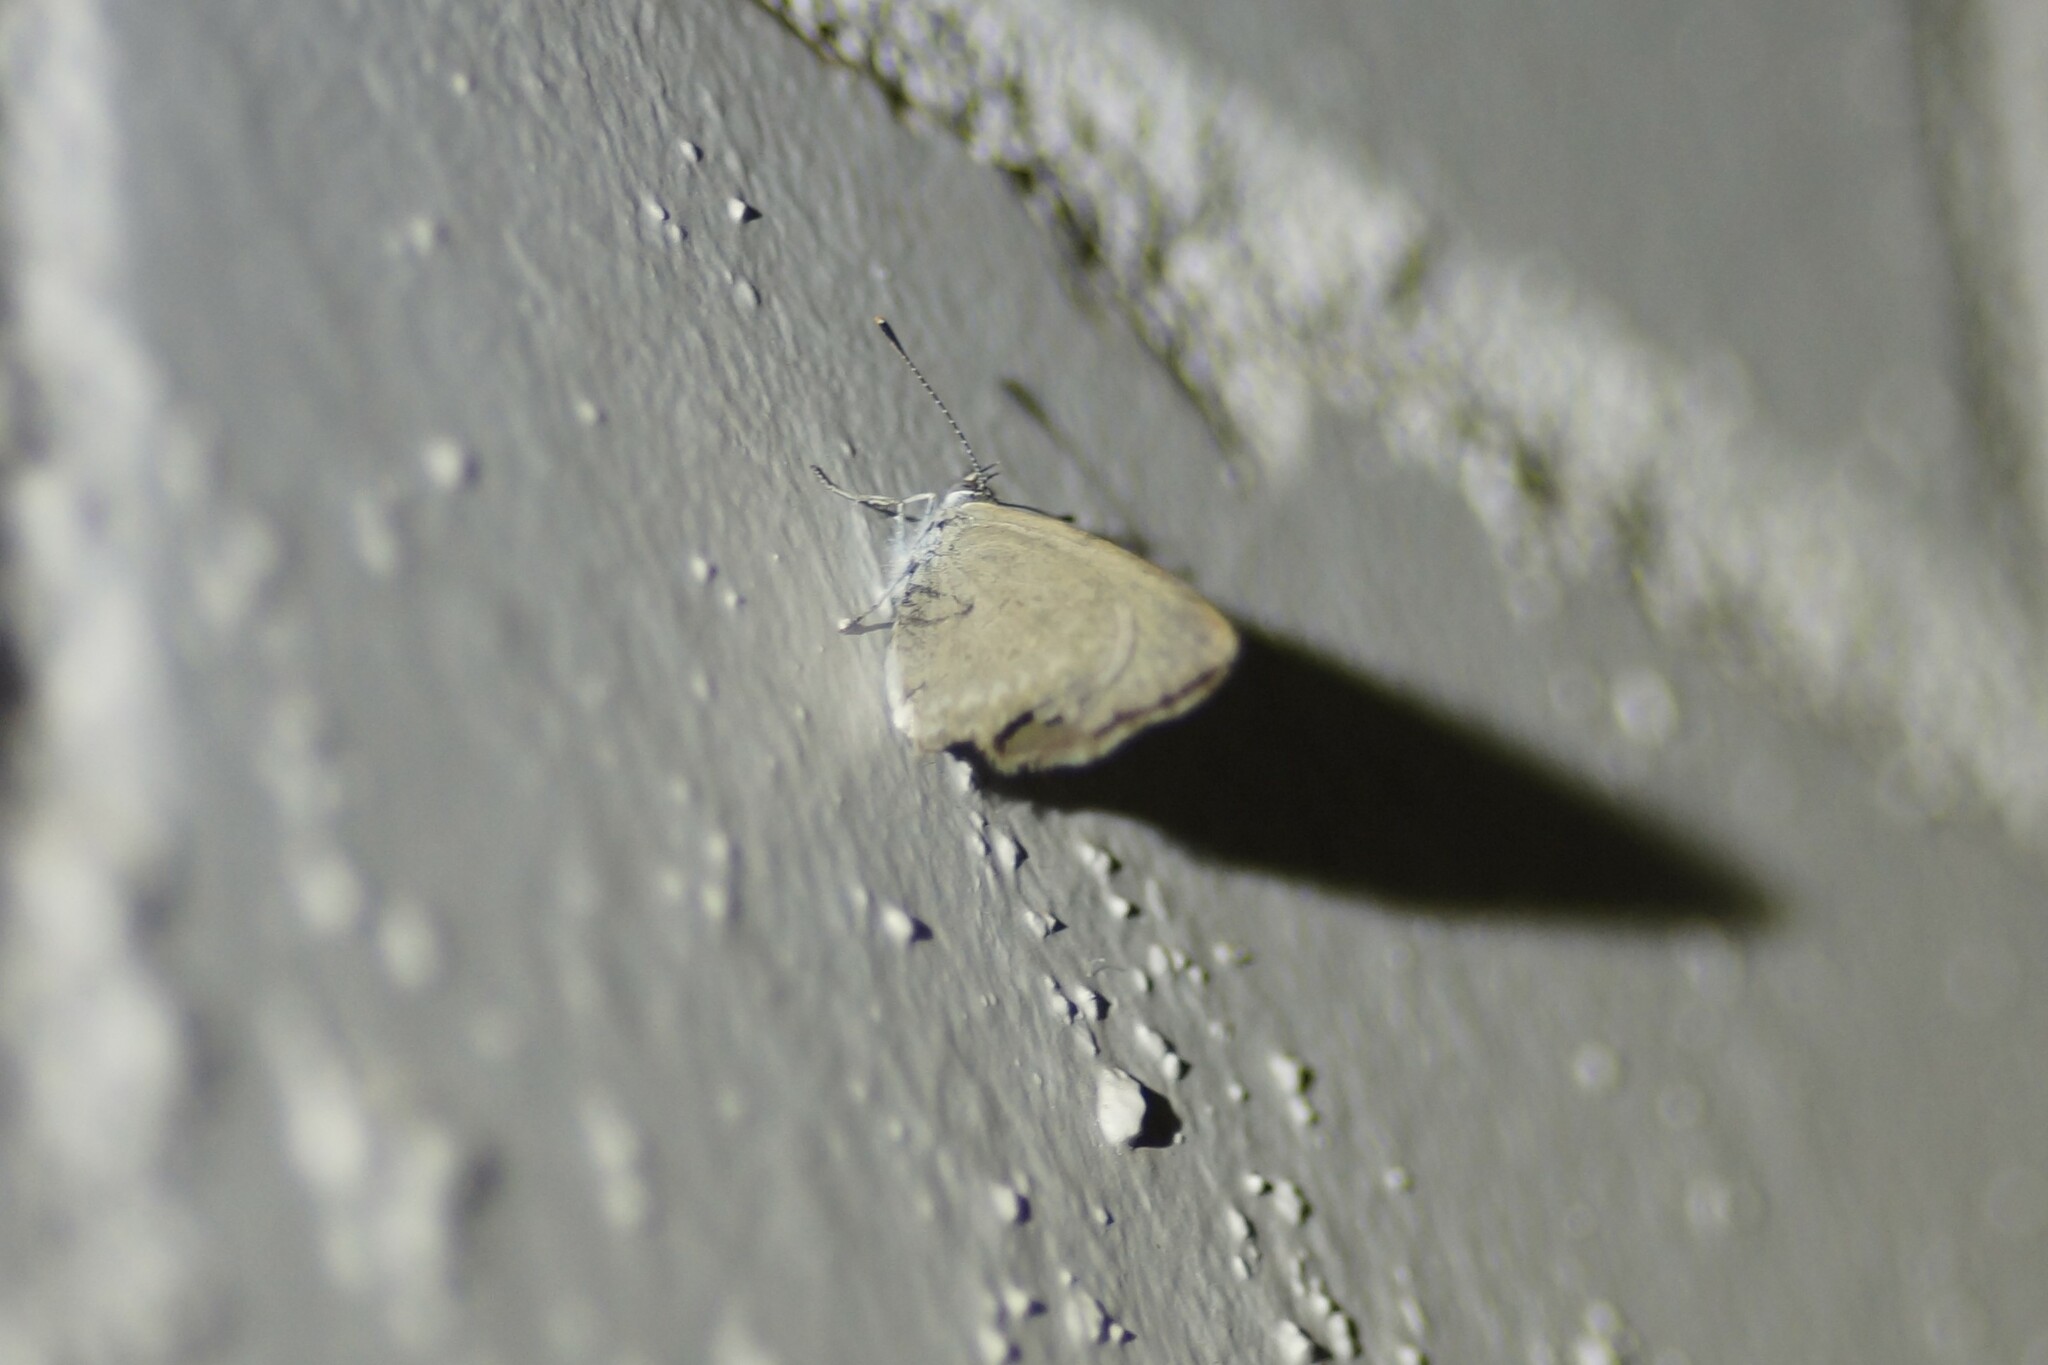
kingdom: Animalia
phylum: Arthropoda
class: Insecta
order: Lepidoptera
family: Lycaenidae
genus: Zizina
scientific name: Zizina otis
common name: Lesser grass blue
